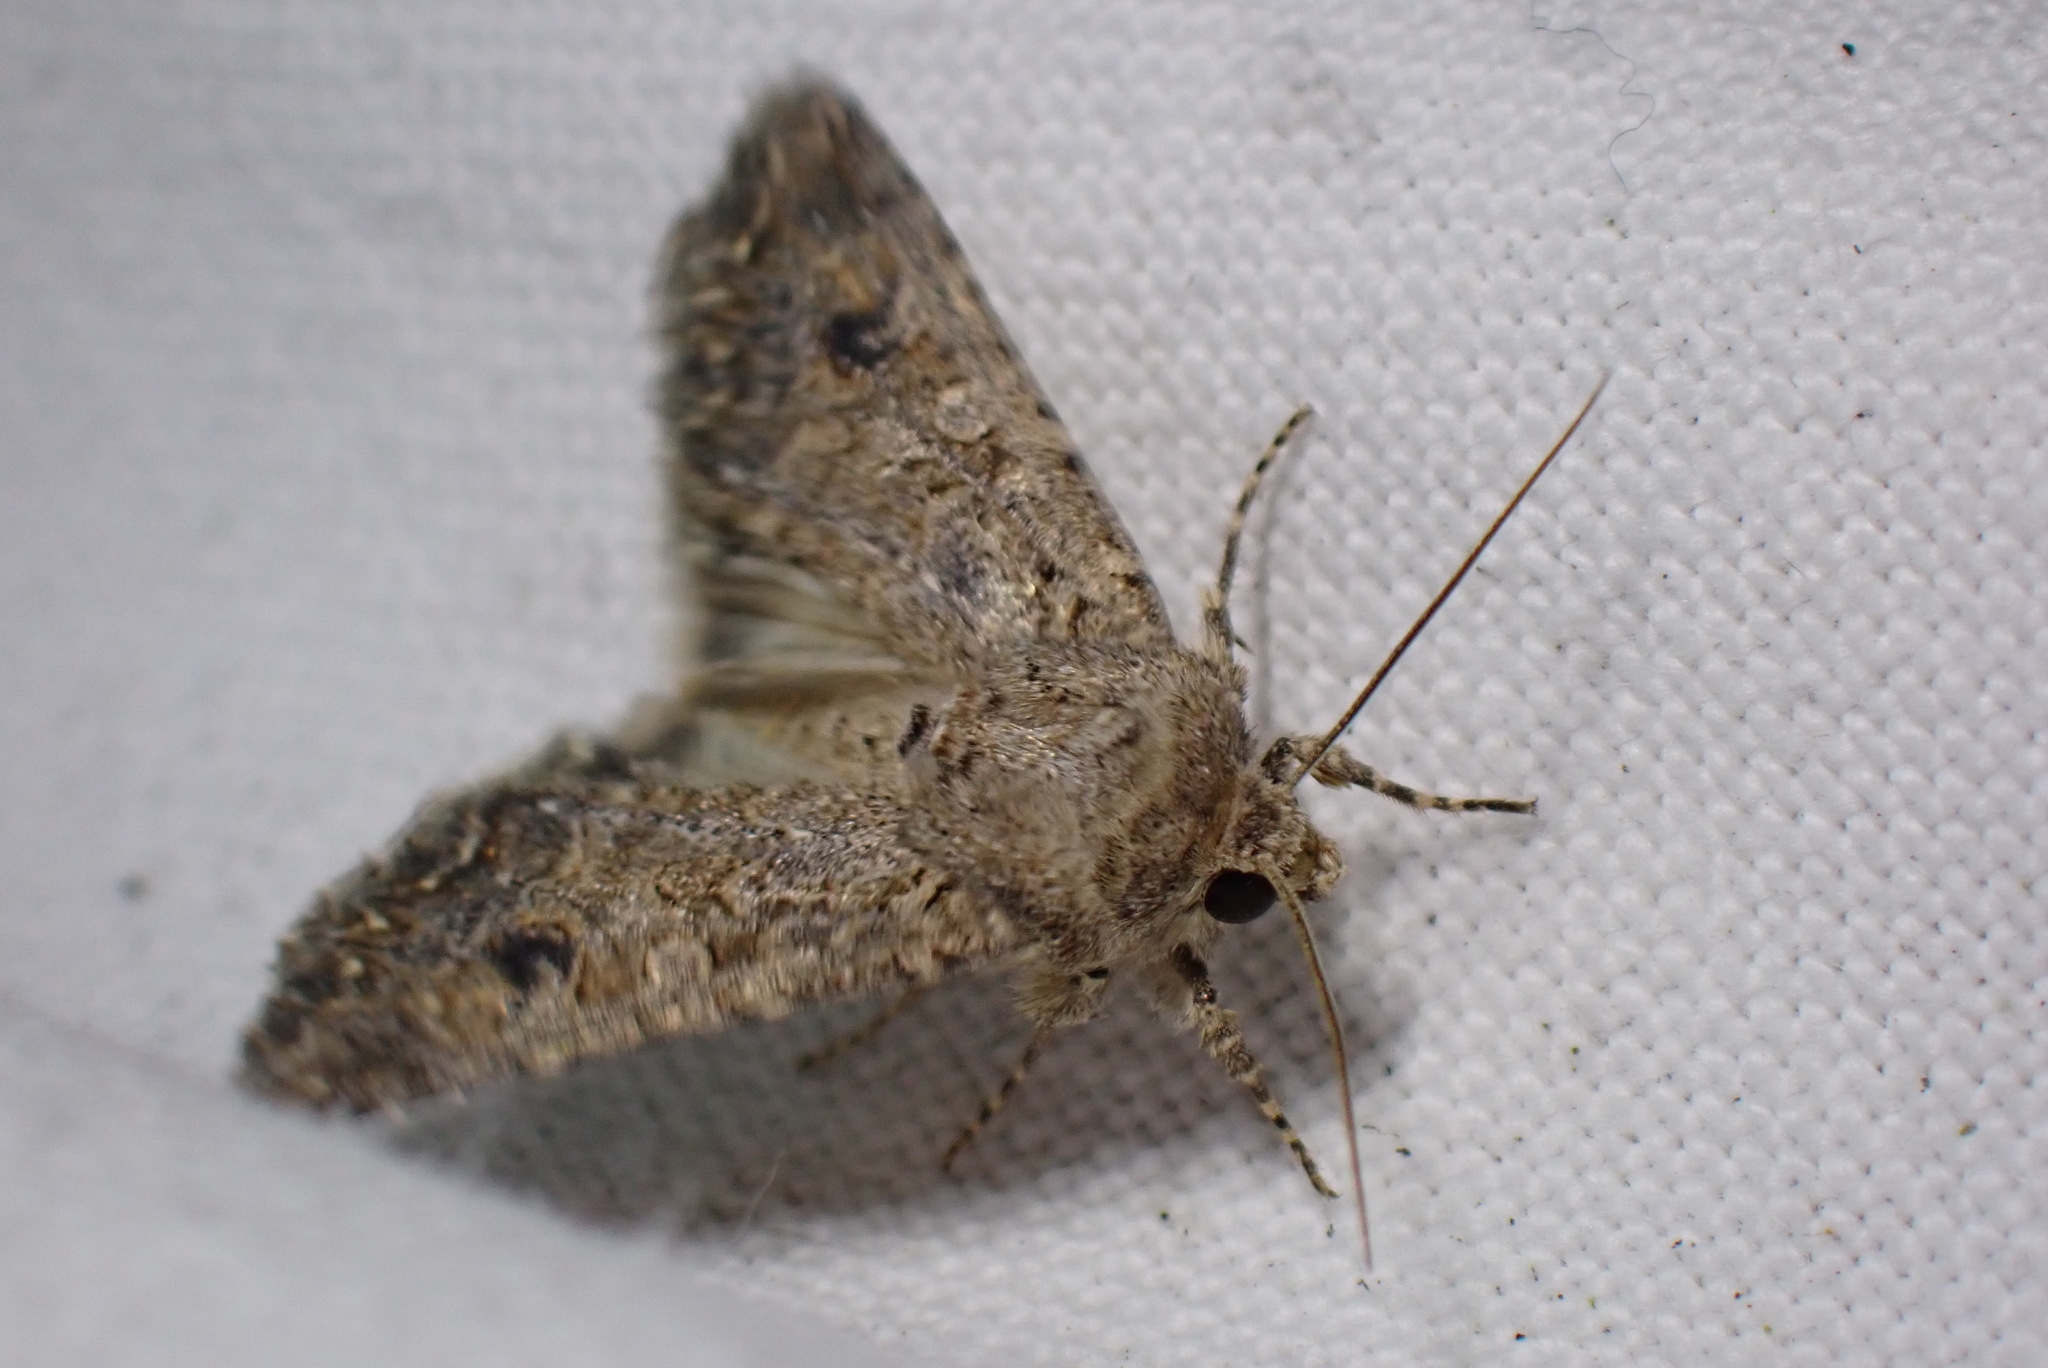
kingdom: Animalia
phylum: Arthropoda
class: Insecta
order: Lepidoptera
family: Noctuidae
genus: Anarta
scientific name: Anarta trifolii
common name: Clover cutworm moth
